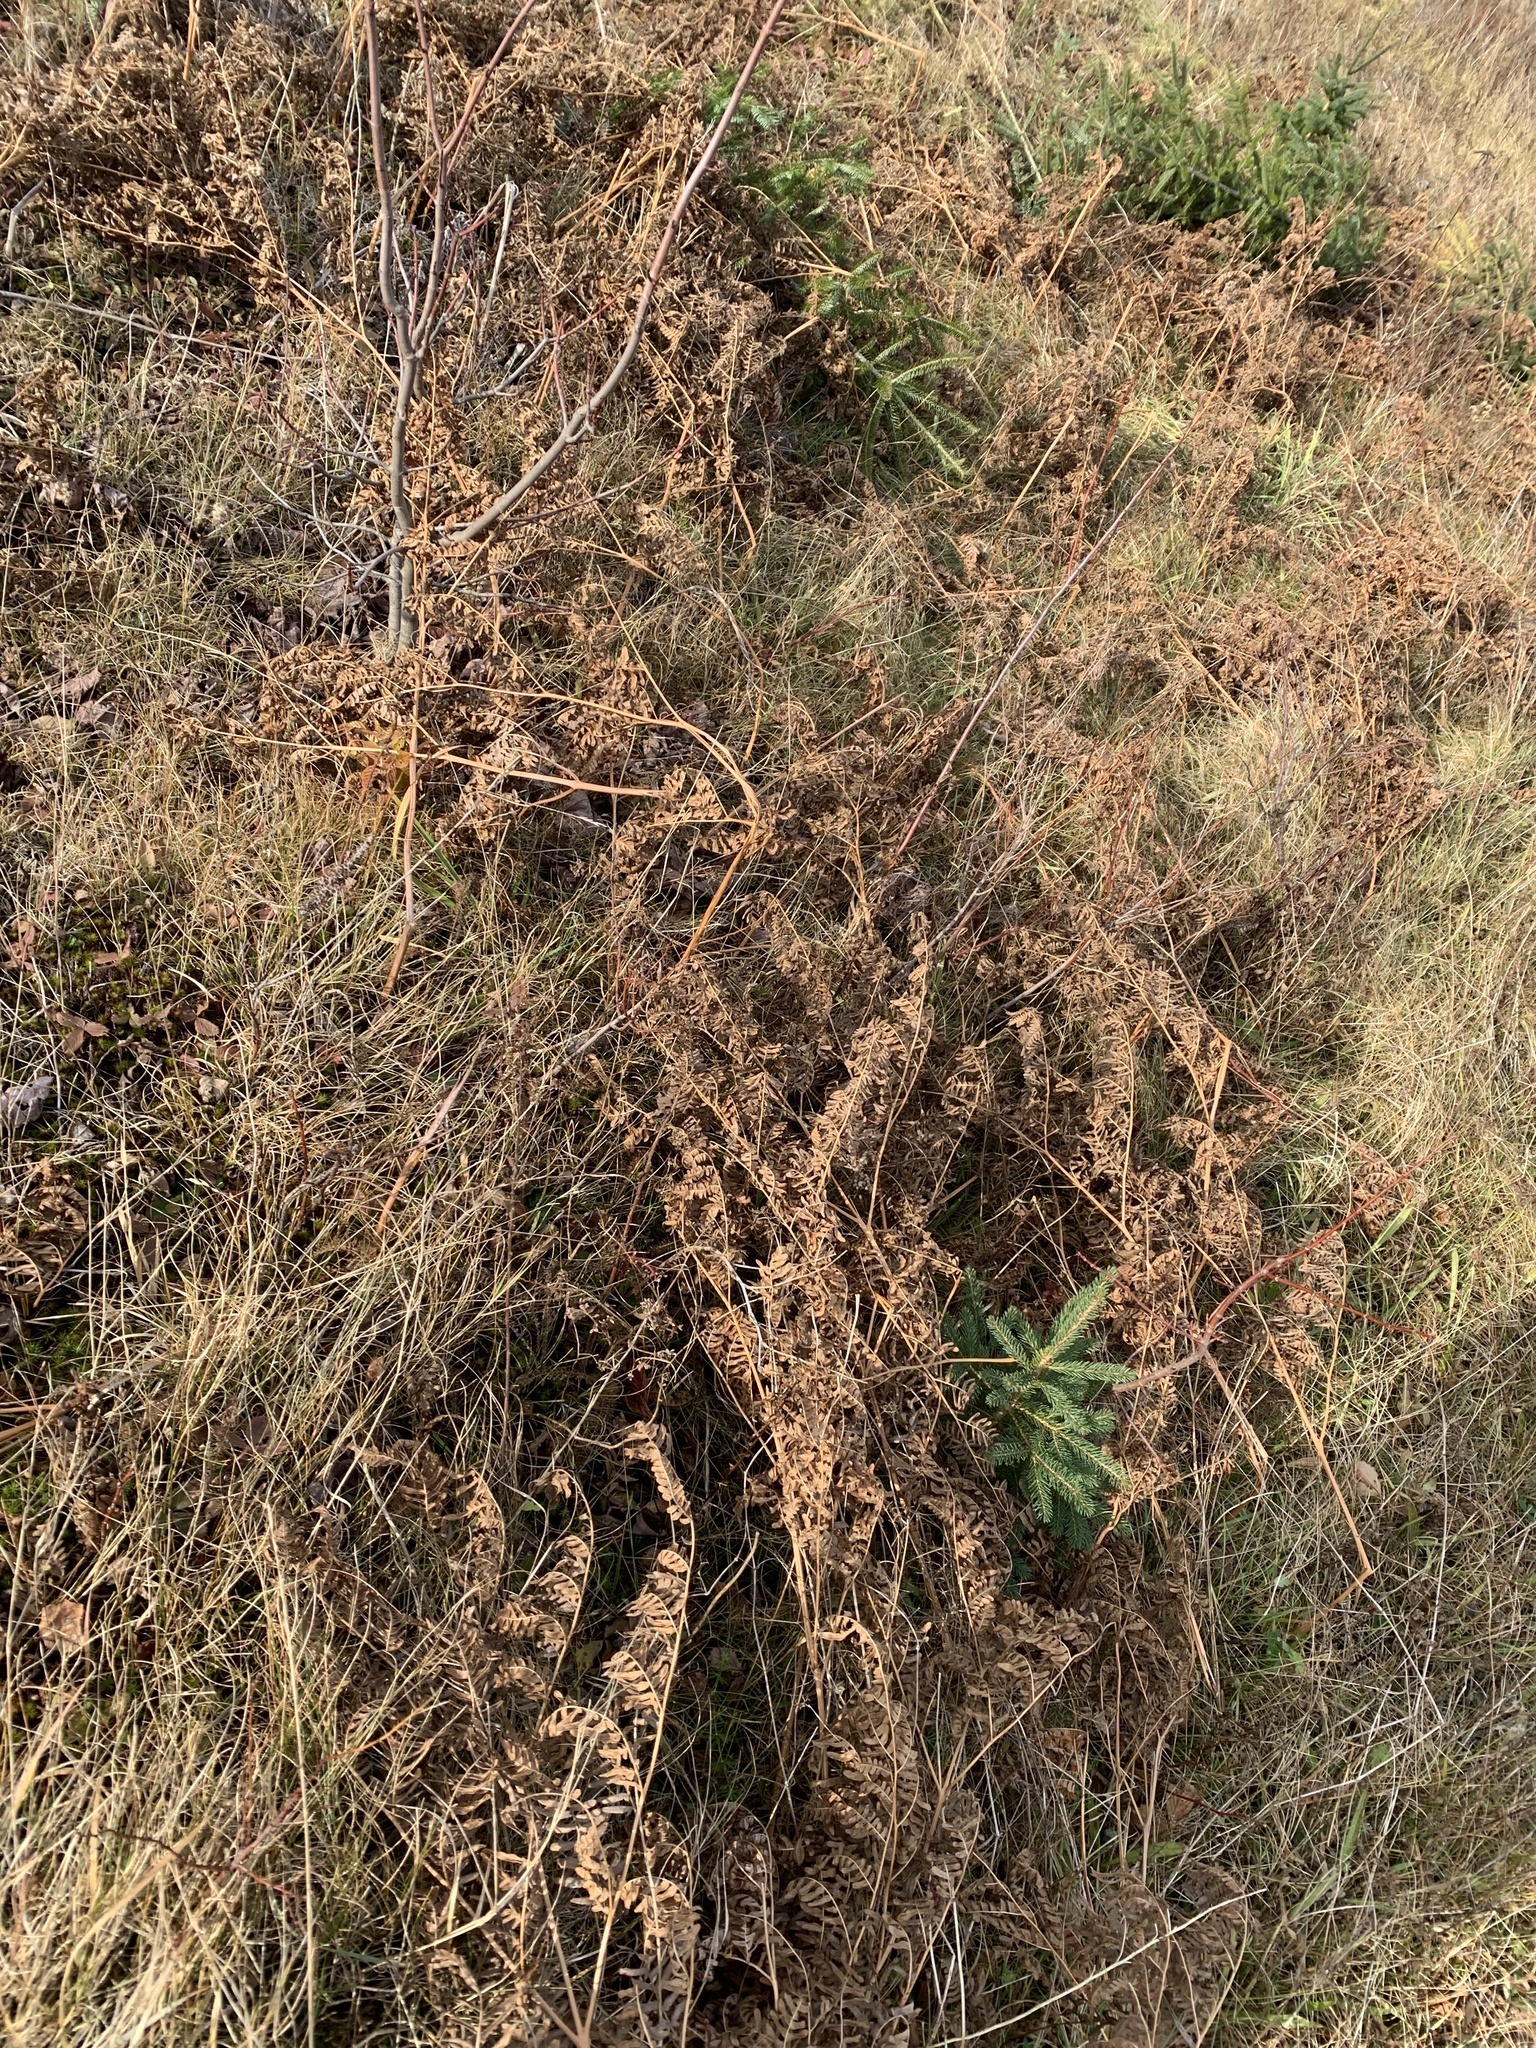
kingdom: Plantae
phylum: Tracheophyta
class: Polypodiopsida
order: Polypodiales
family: Dennstaedtiaceae
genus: Pteridium
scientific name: Pteridium aquilinum
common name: Bracken
